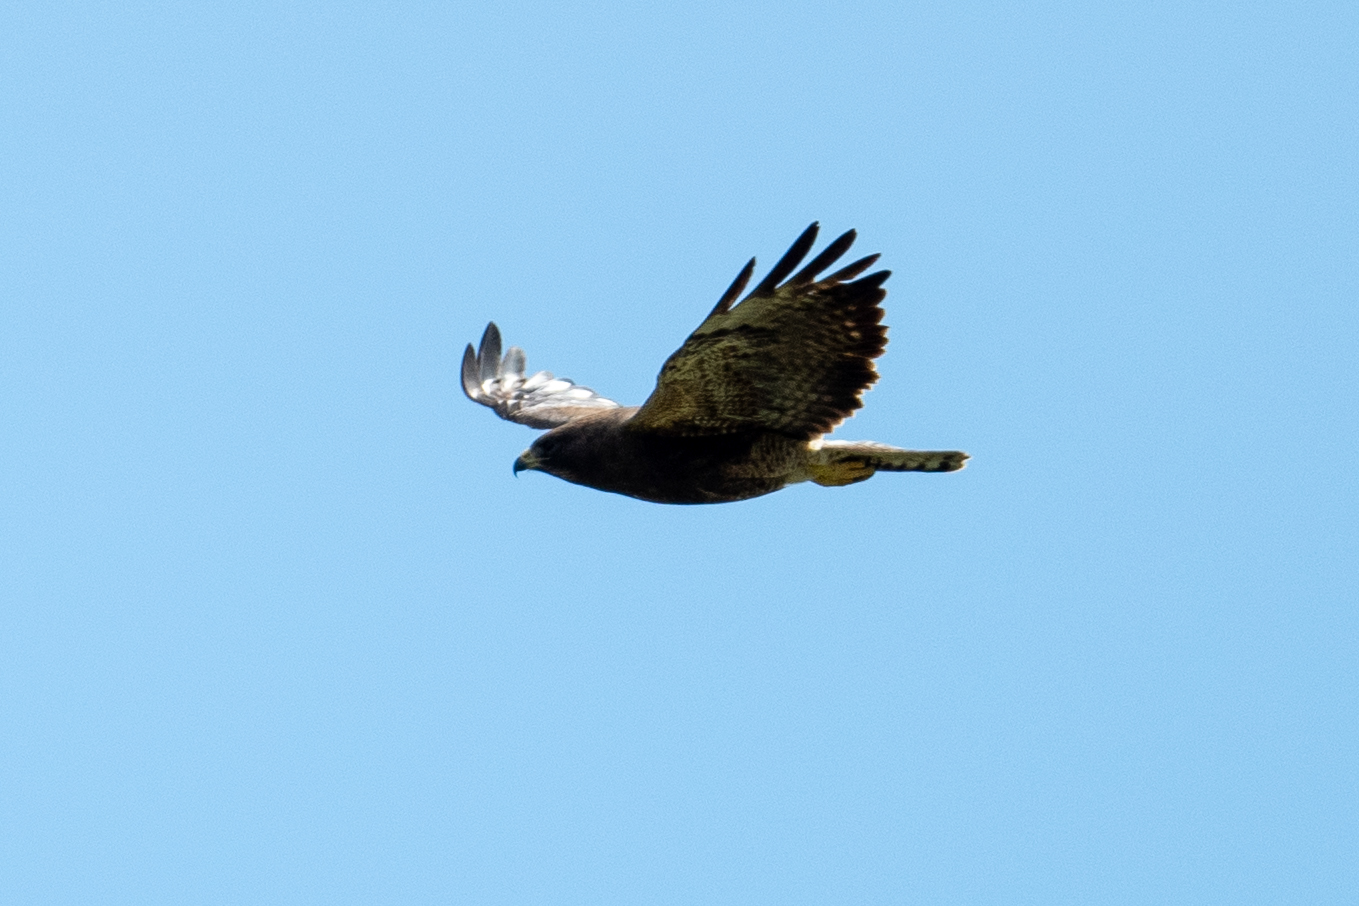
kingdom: Animalia
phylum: Chordata
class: Aves
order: Accipitriformes
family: Accipitridae
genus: Buteo
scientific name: Buteo swainsoni
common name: Swainson's hawk
